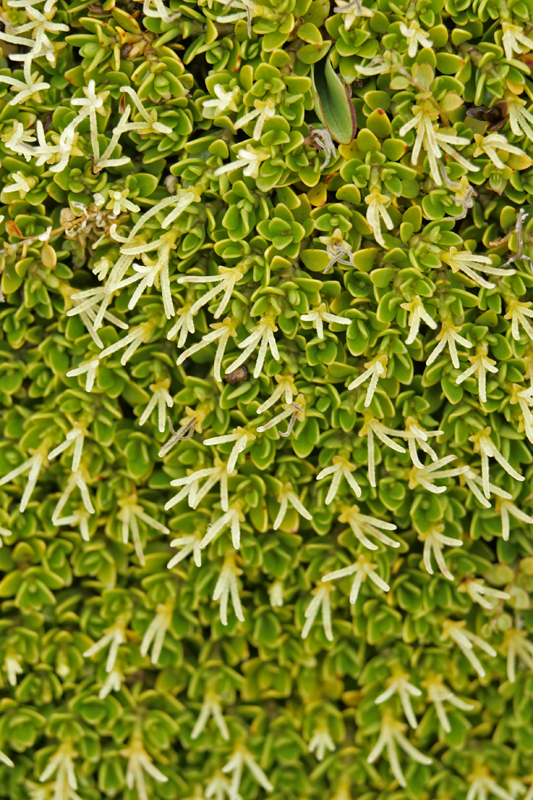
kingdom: Plantae
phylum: Tracheophyta
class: Magnoliopsida
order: Gentianales
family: Rubiaceae
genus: Coprosma
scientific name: Coprosma perpusilla
